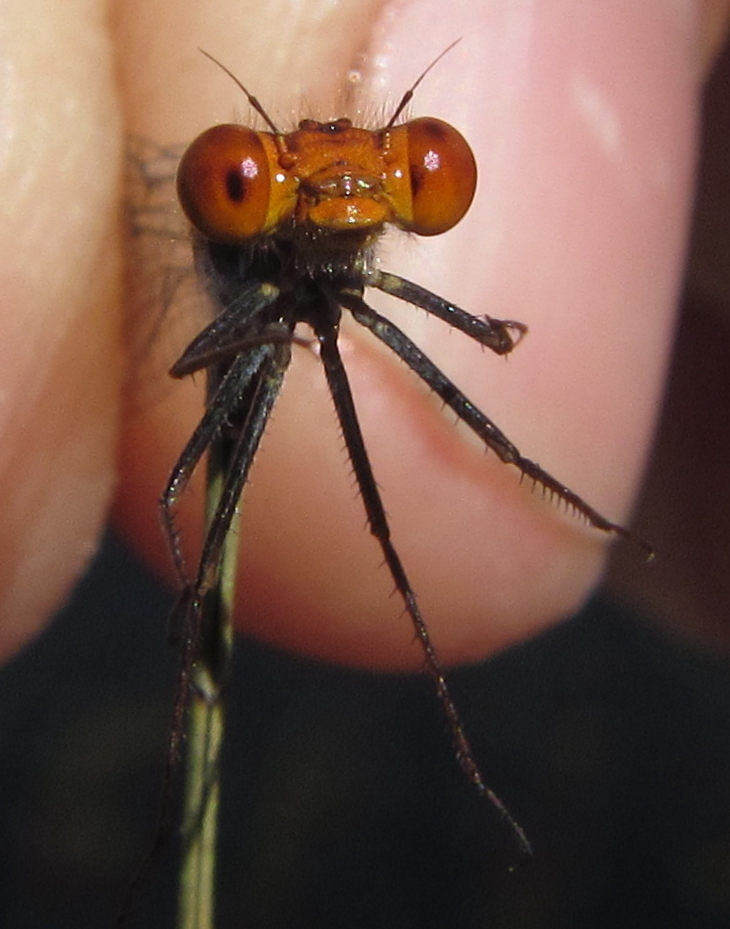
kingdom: Animalia
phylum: Arthropoda
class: Insecta
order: Odonata
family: Coenagrionidae
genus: Pseudagrion
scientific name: Pseudagrion rufostigma
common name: Dark sprite
